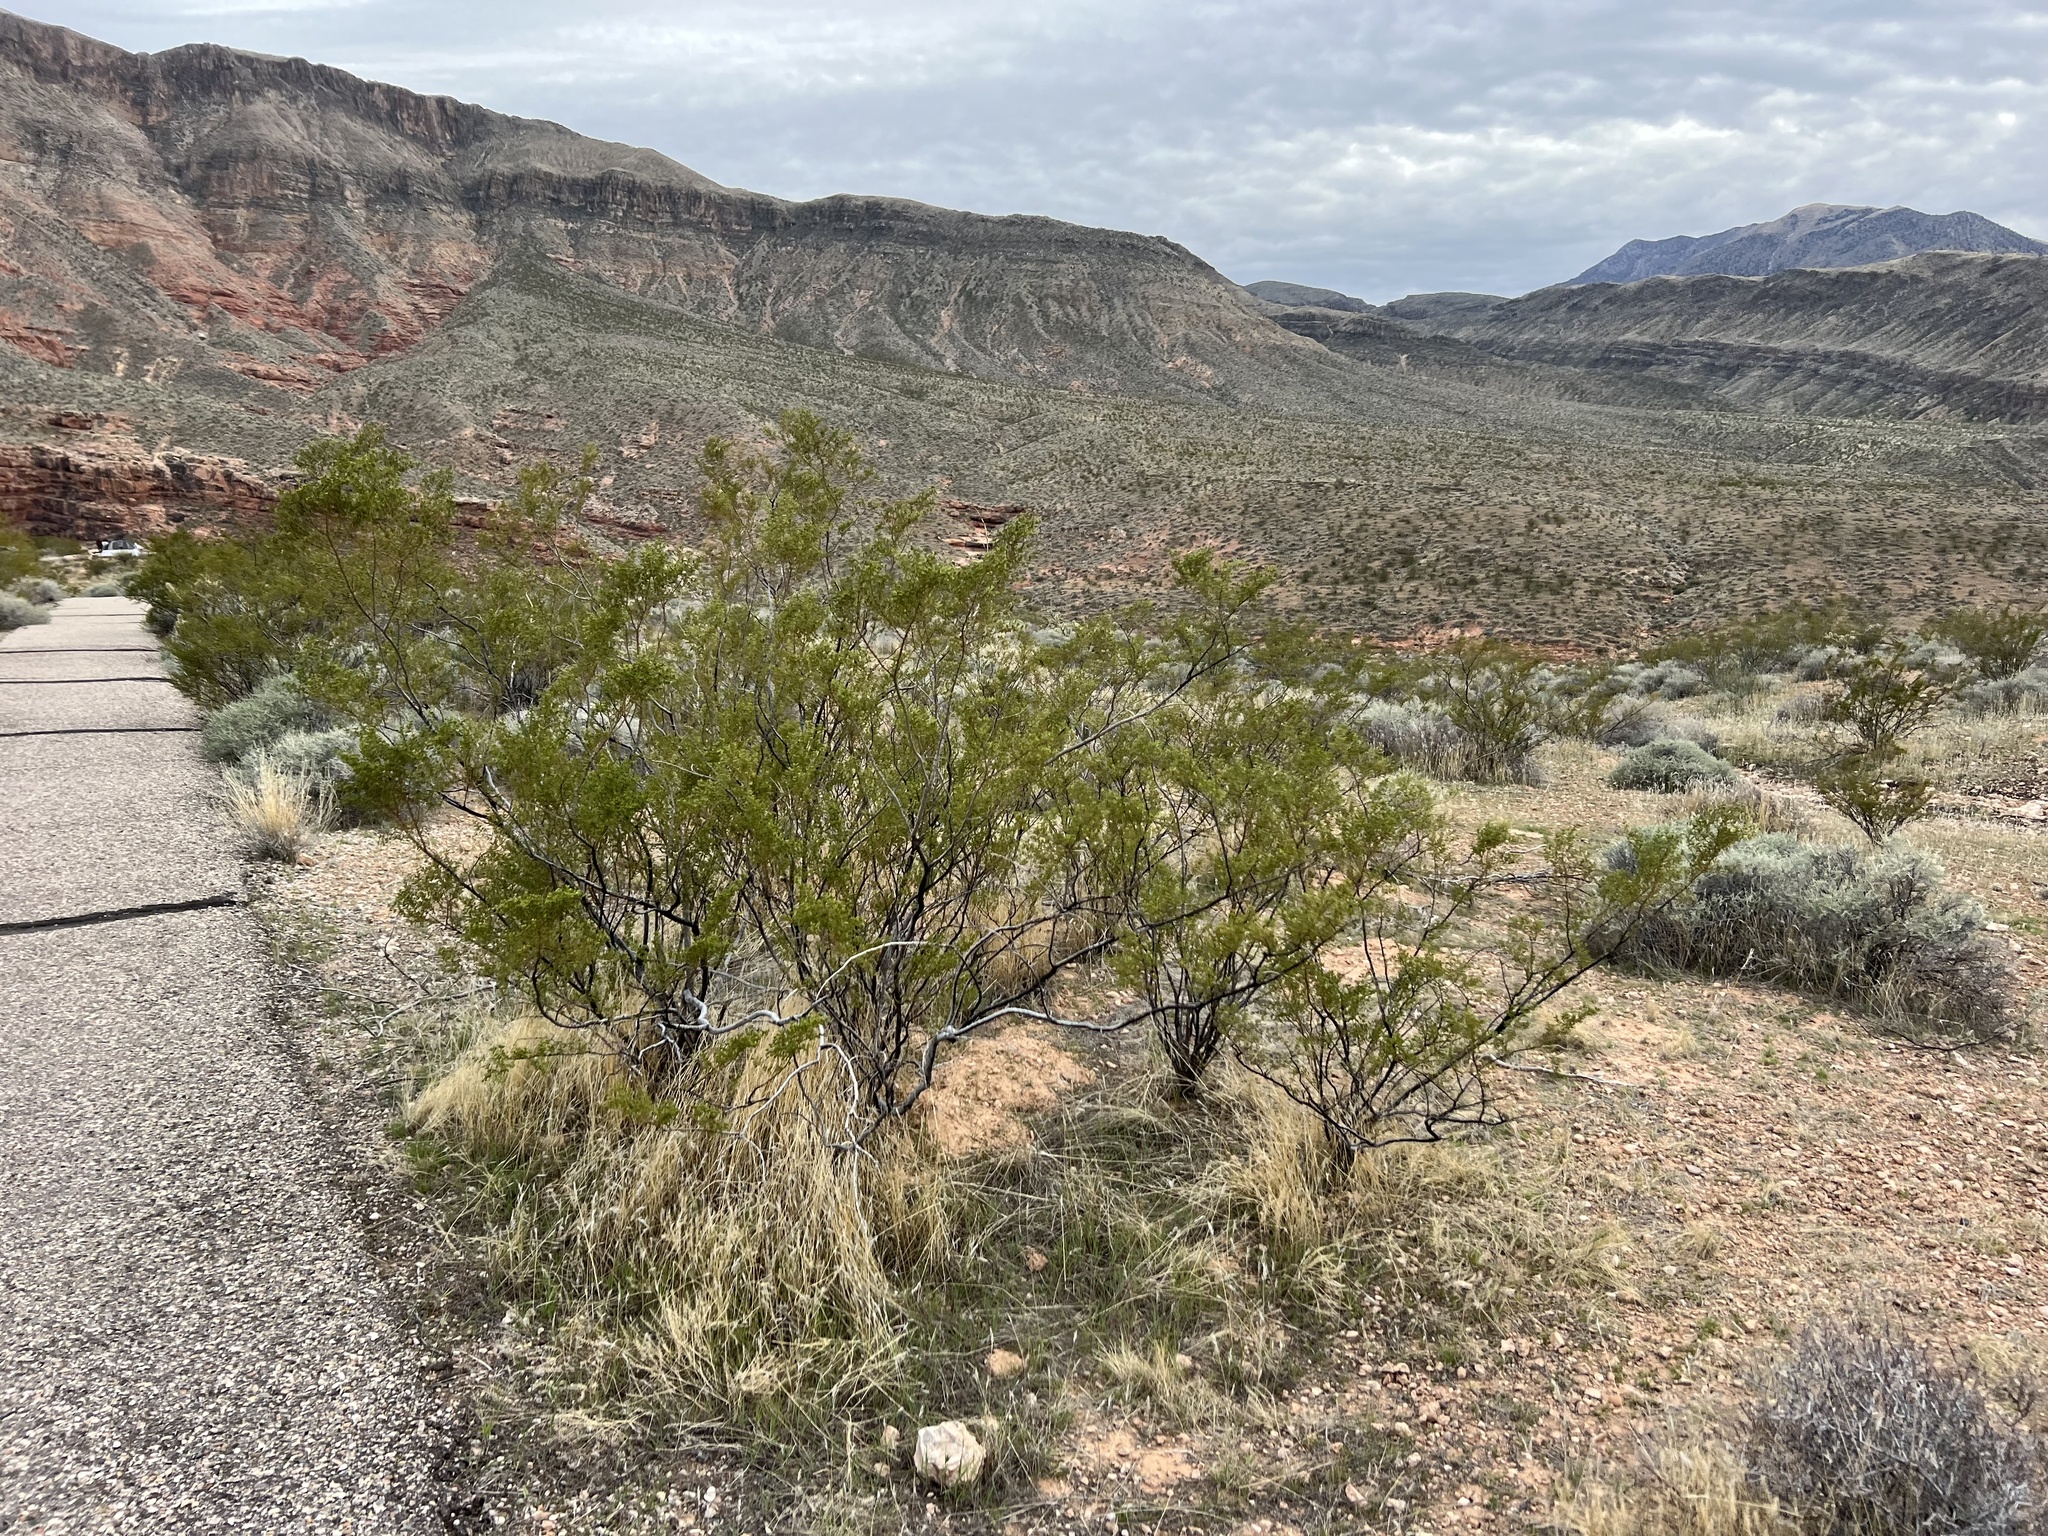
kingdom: Plantae
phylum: Tracheophyta
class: Magnoliopsida
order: Zygophyllales
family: Zygophyllaceae
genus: Larrea
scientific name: Larrea tridentata
